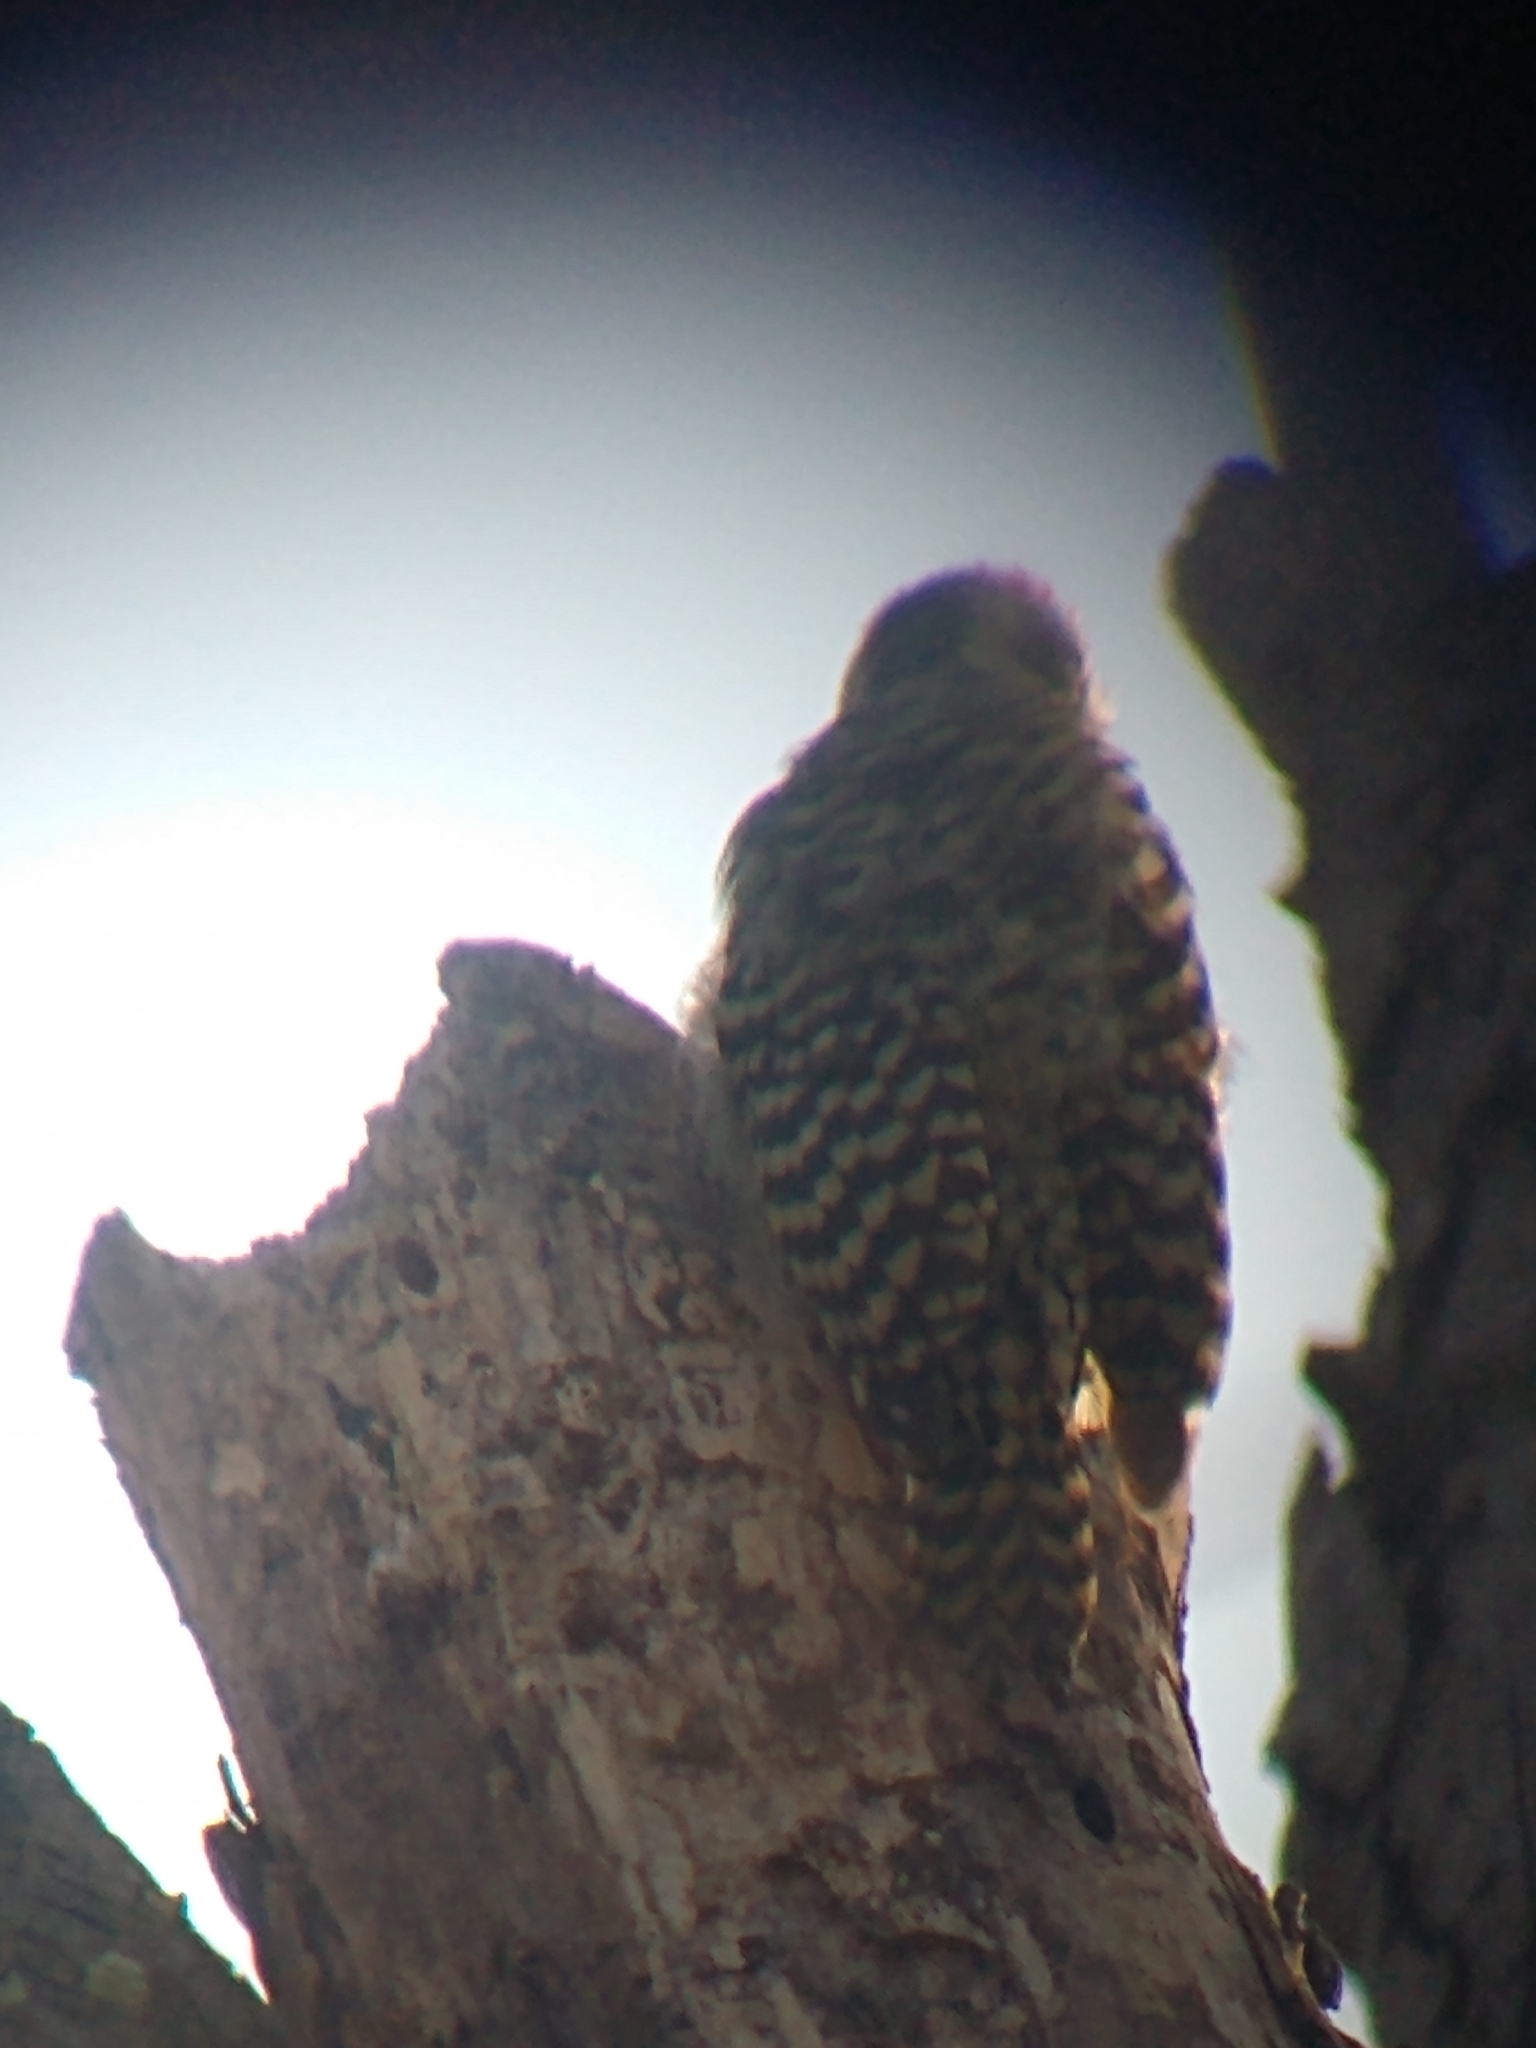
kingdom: Animalia
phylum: Chordata
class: Aves
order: Piciformes
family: Picidae
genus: Veniliornis
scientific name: Veniliornis mixtus
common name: Checkered woodpecker
